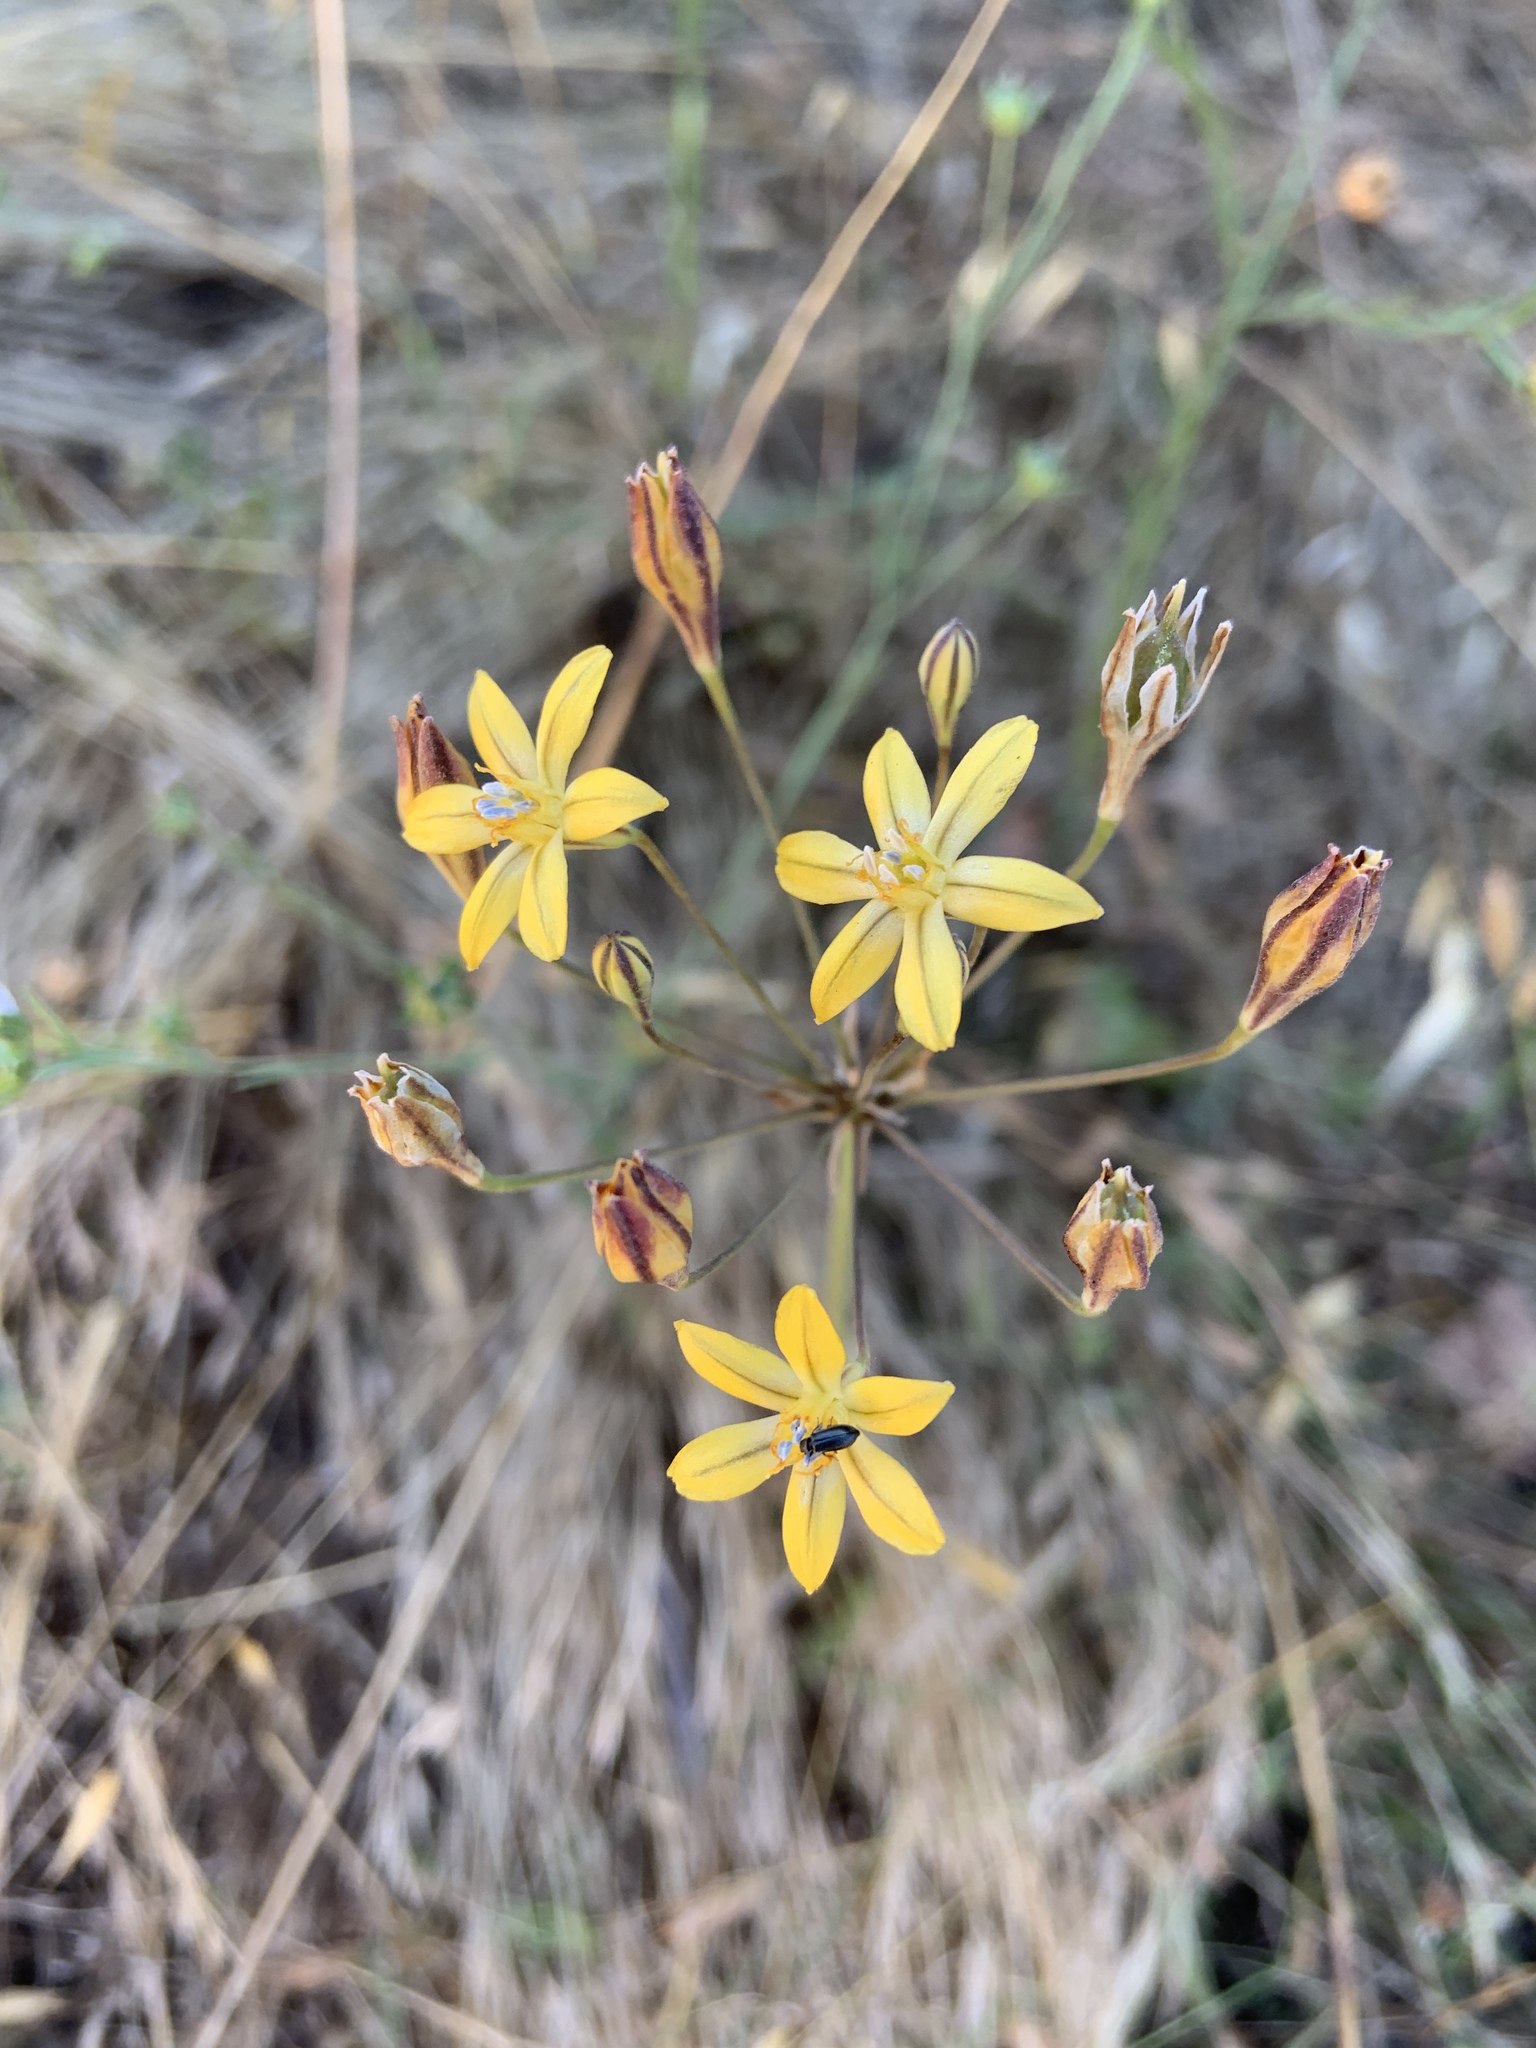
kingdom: Plantae
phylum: Tracheophyta
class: Liliopsida
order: Asparagales
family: Asparagaceae
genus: Triteleia
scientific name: Triteleia ixioides
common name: Yellow-brodiaea
